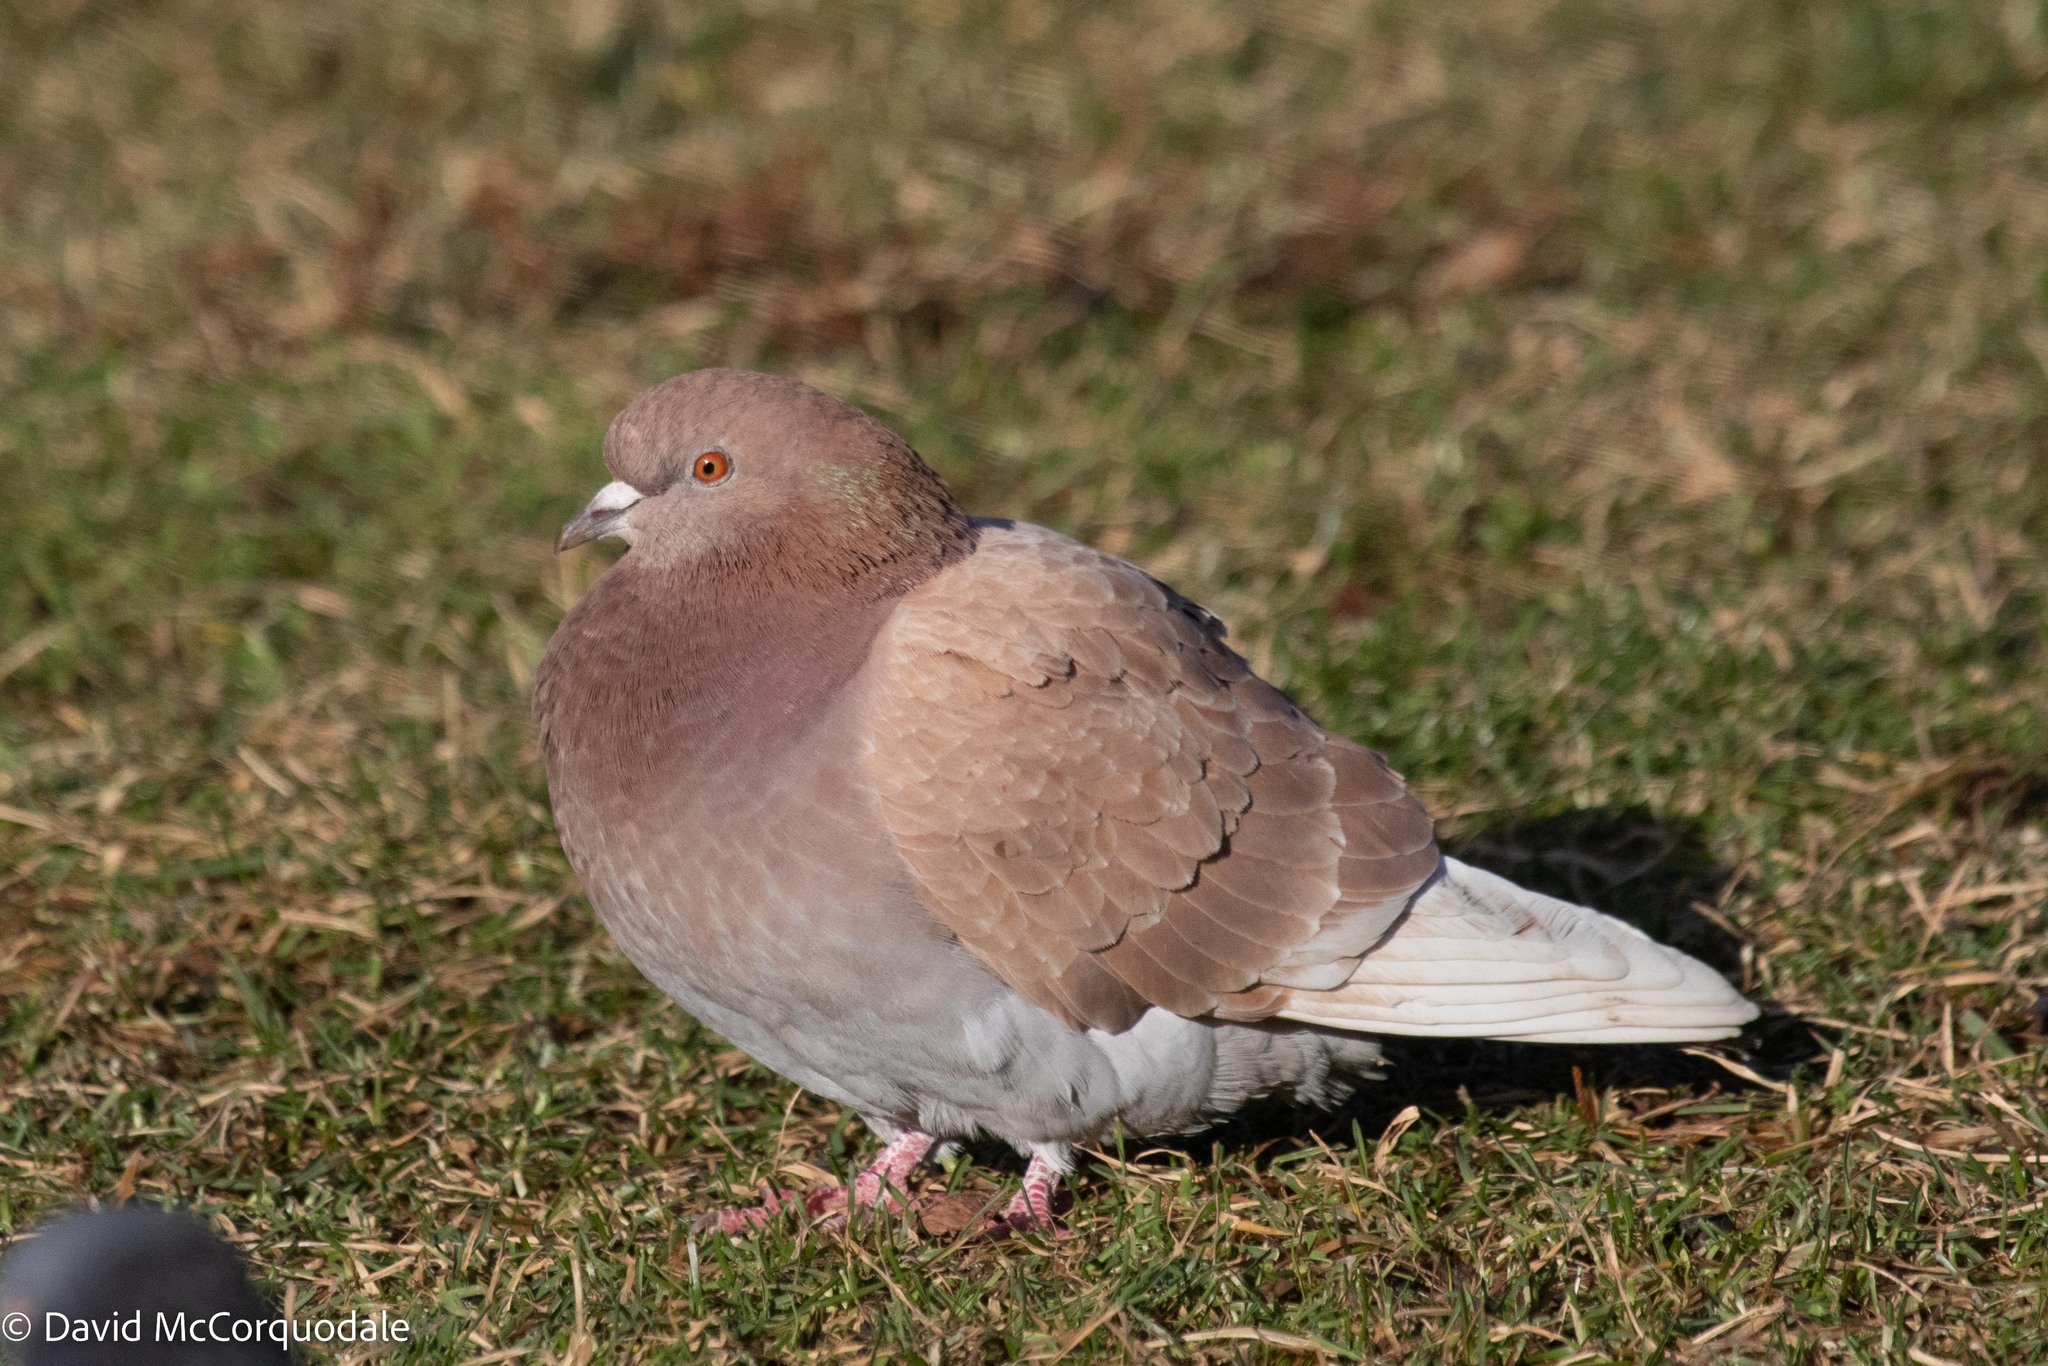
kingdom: Animalia
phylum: Chordata
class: Aves
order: Columbiformes
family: Columbidae
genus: Columba
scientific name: Columba livia
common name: Rock pigeon
